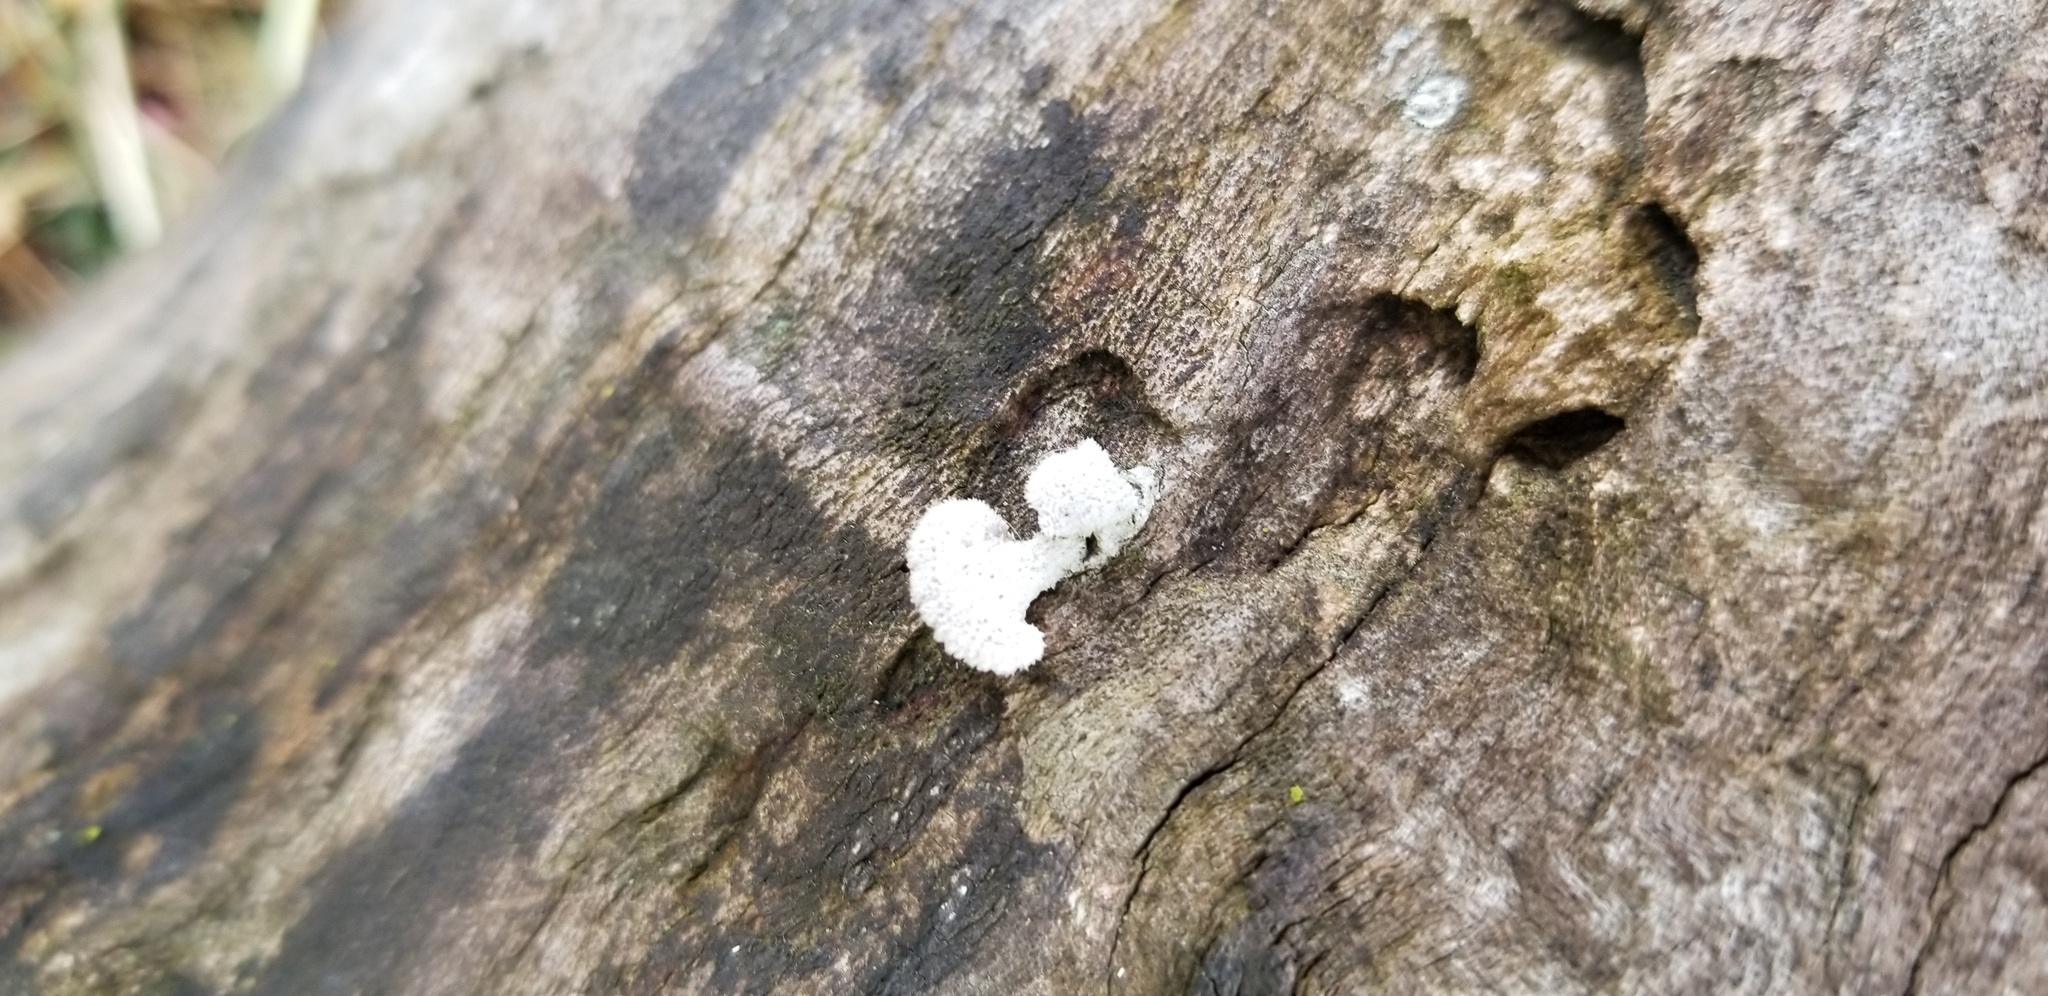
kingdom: Fungi
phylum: Basidiomycota
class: Agaricomycetes
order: Agaricales
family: Schizophyllaceae
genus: Schizophyllum
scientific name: Schizophyllum commune
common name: Common porecrust
